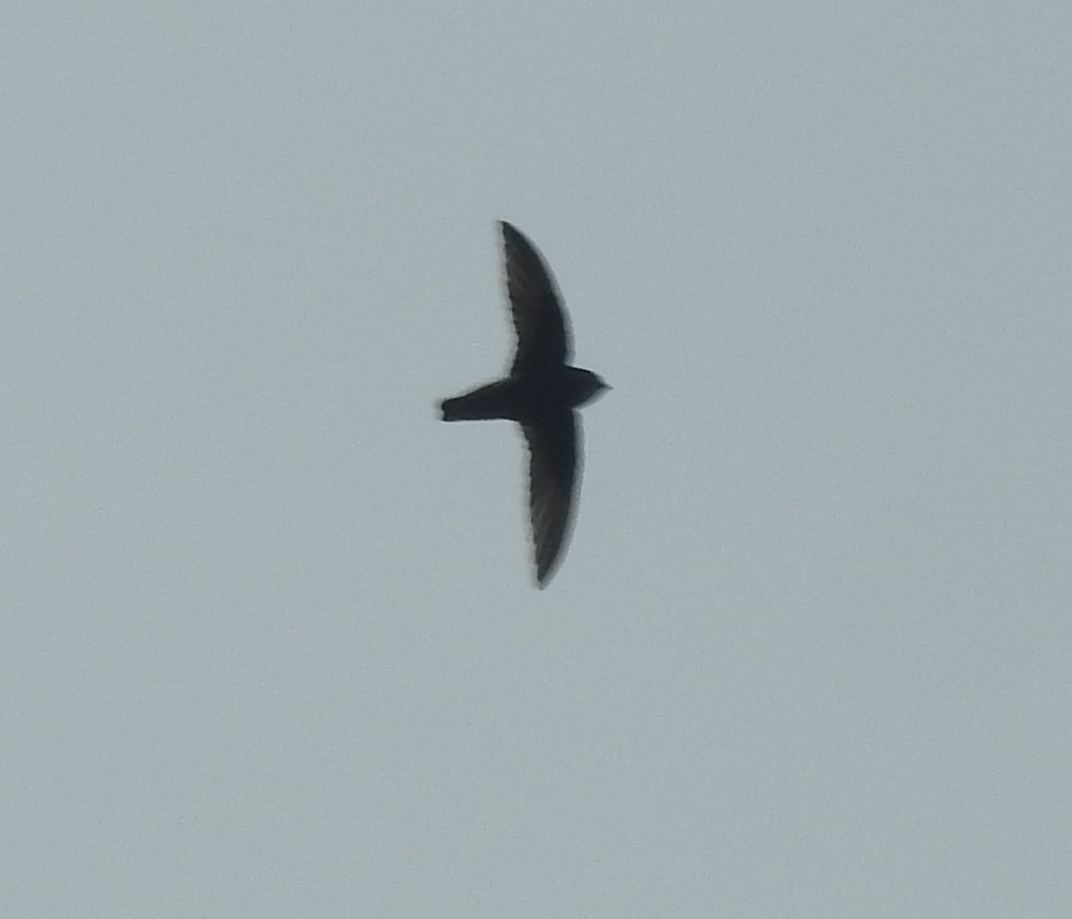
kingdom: Animalia
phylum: Chordata
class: Aves
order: Apodiformes
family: Apodidae
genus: Apus
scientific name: Apus affinis
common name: Little swift
